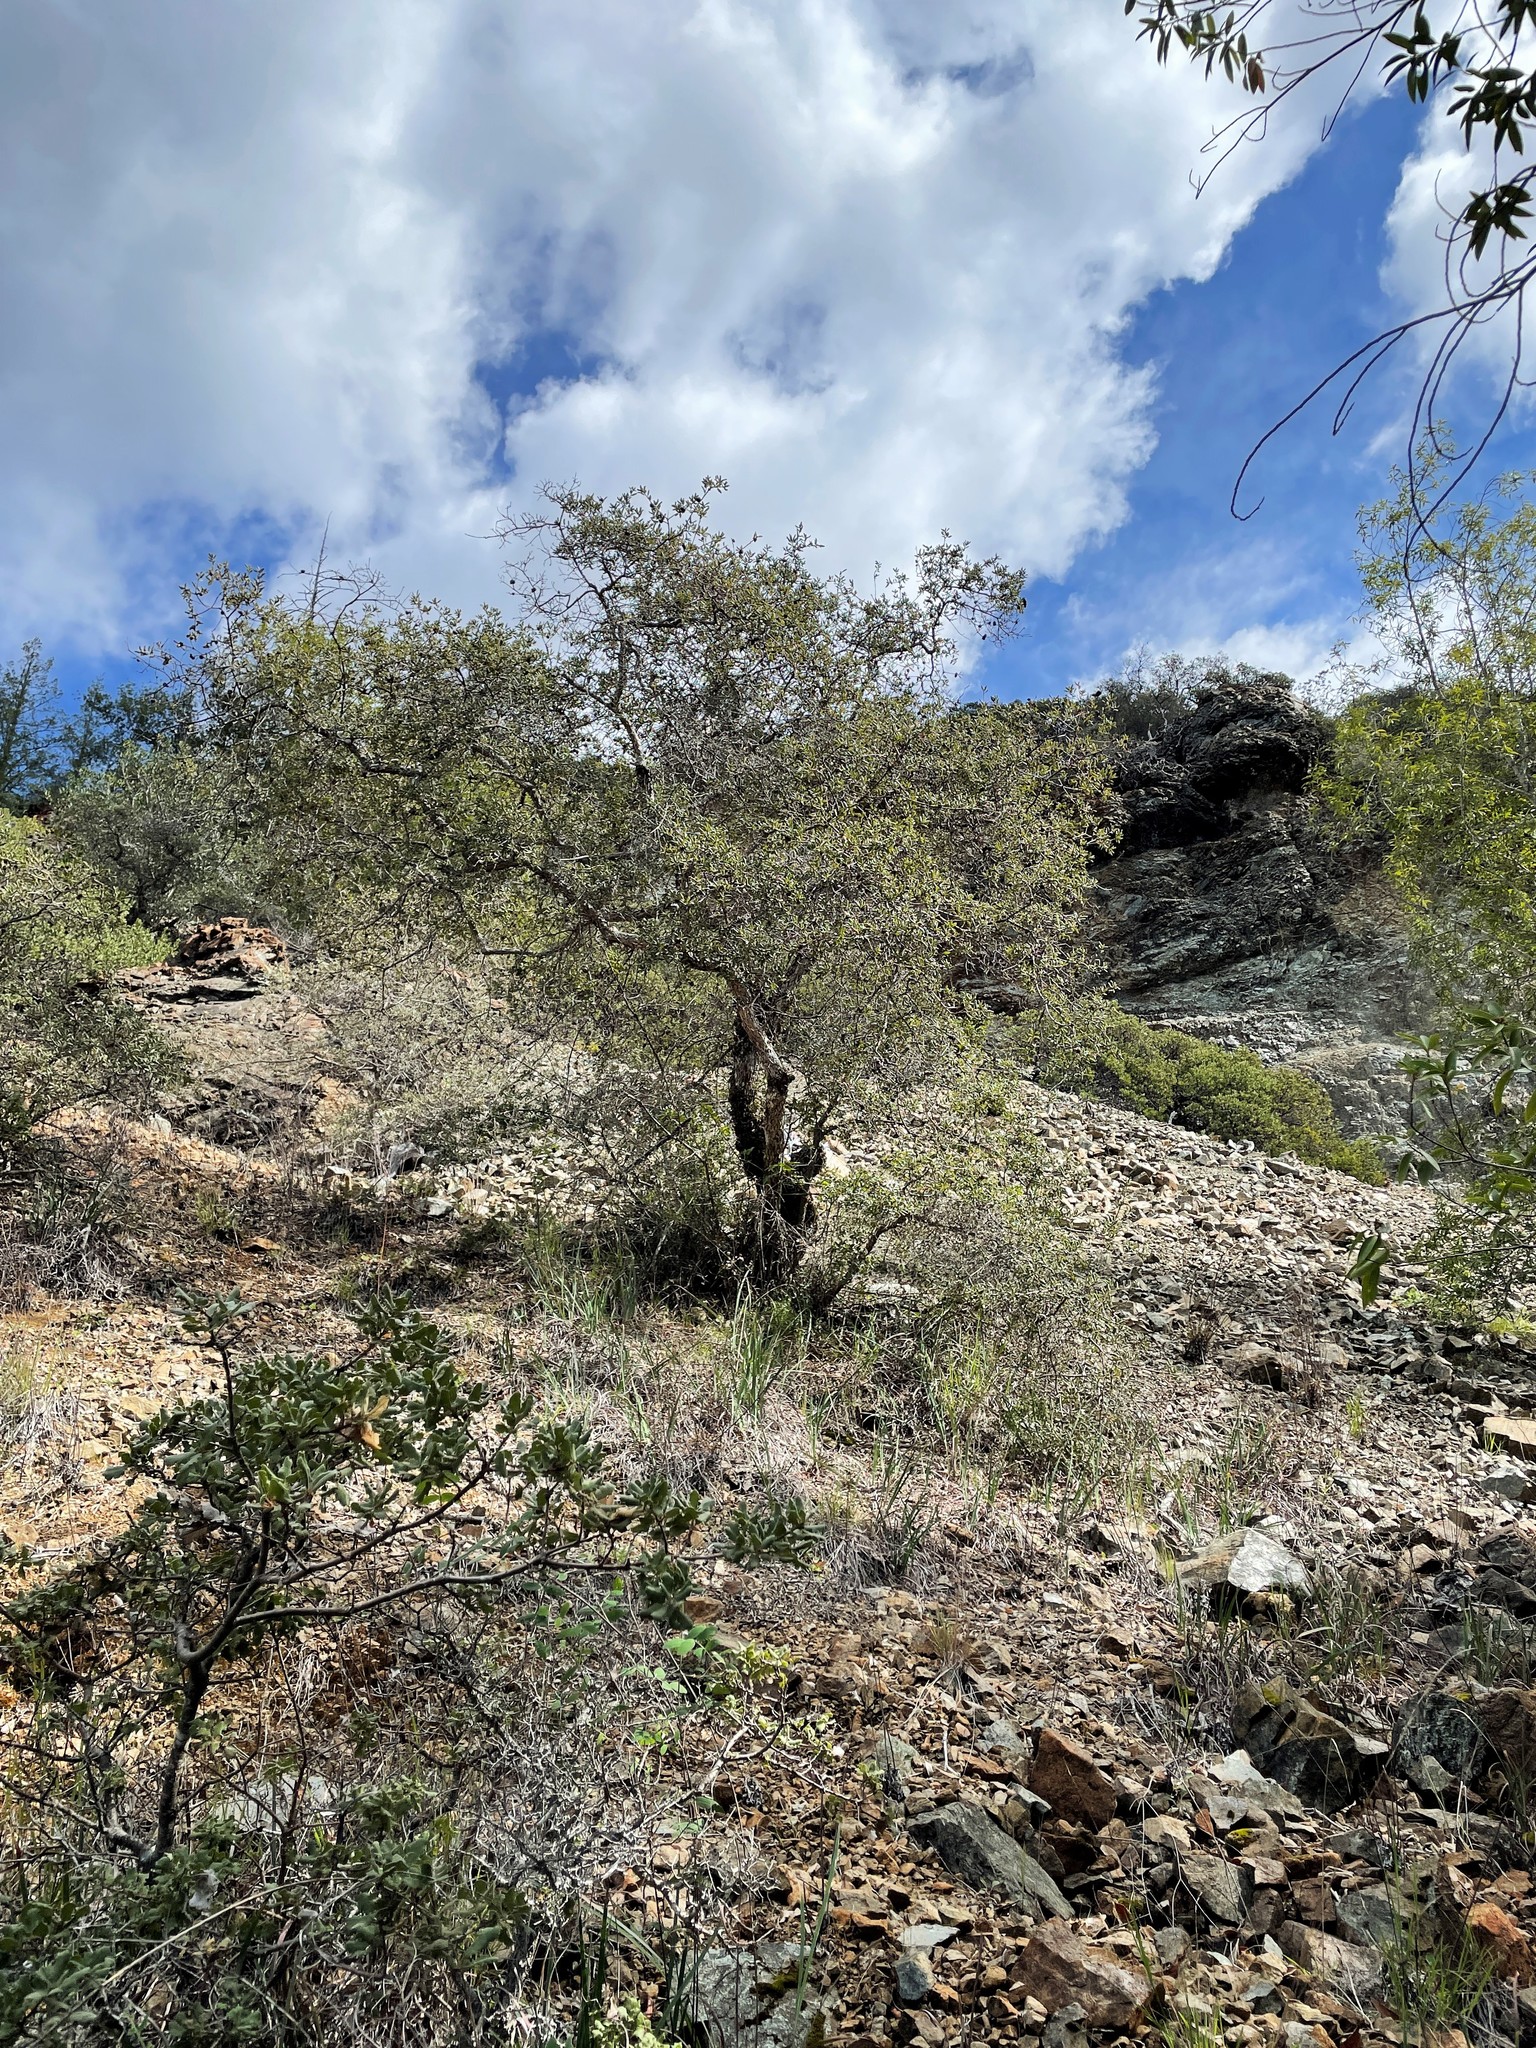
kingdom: Plantae
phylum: Tracheophyta
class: Magnoliopsida
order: Fagales
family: Fagaceae
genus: Quercus
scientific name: Quercus durata
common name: Leather oak
